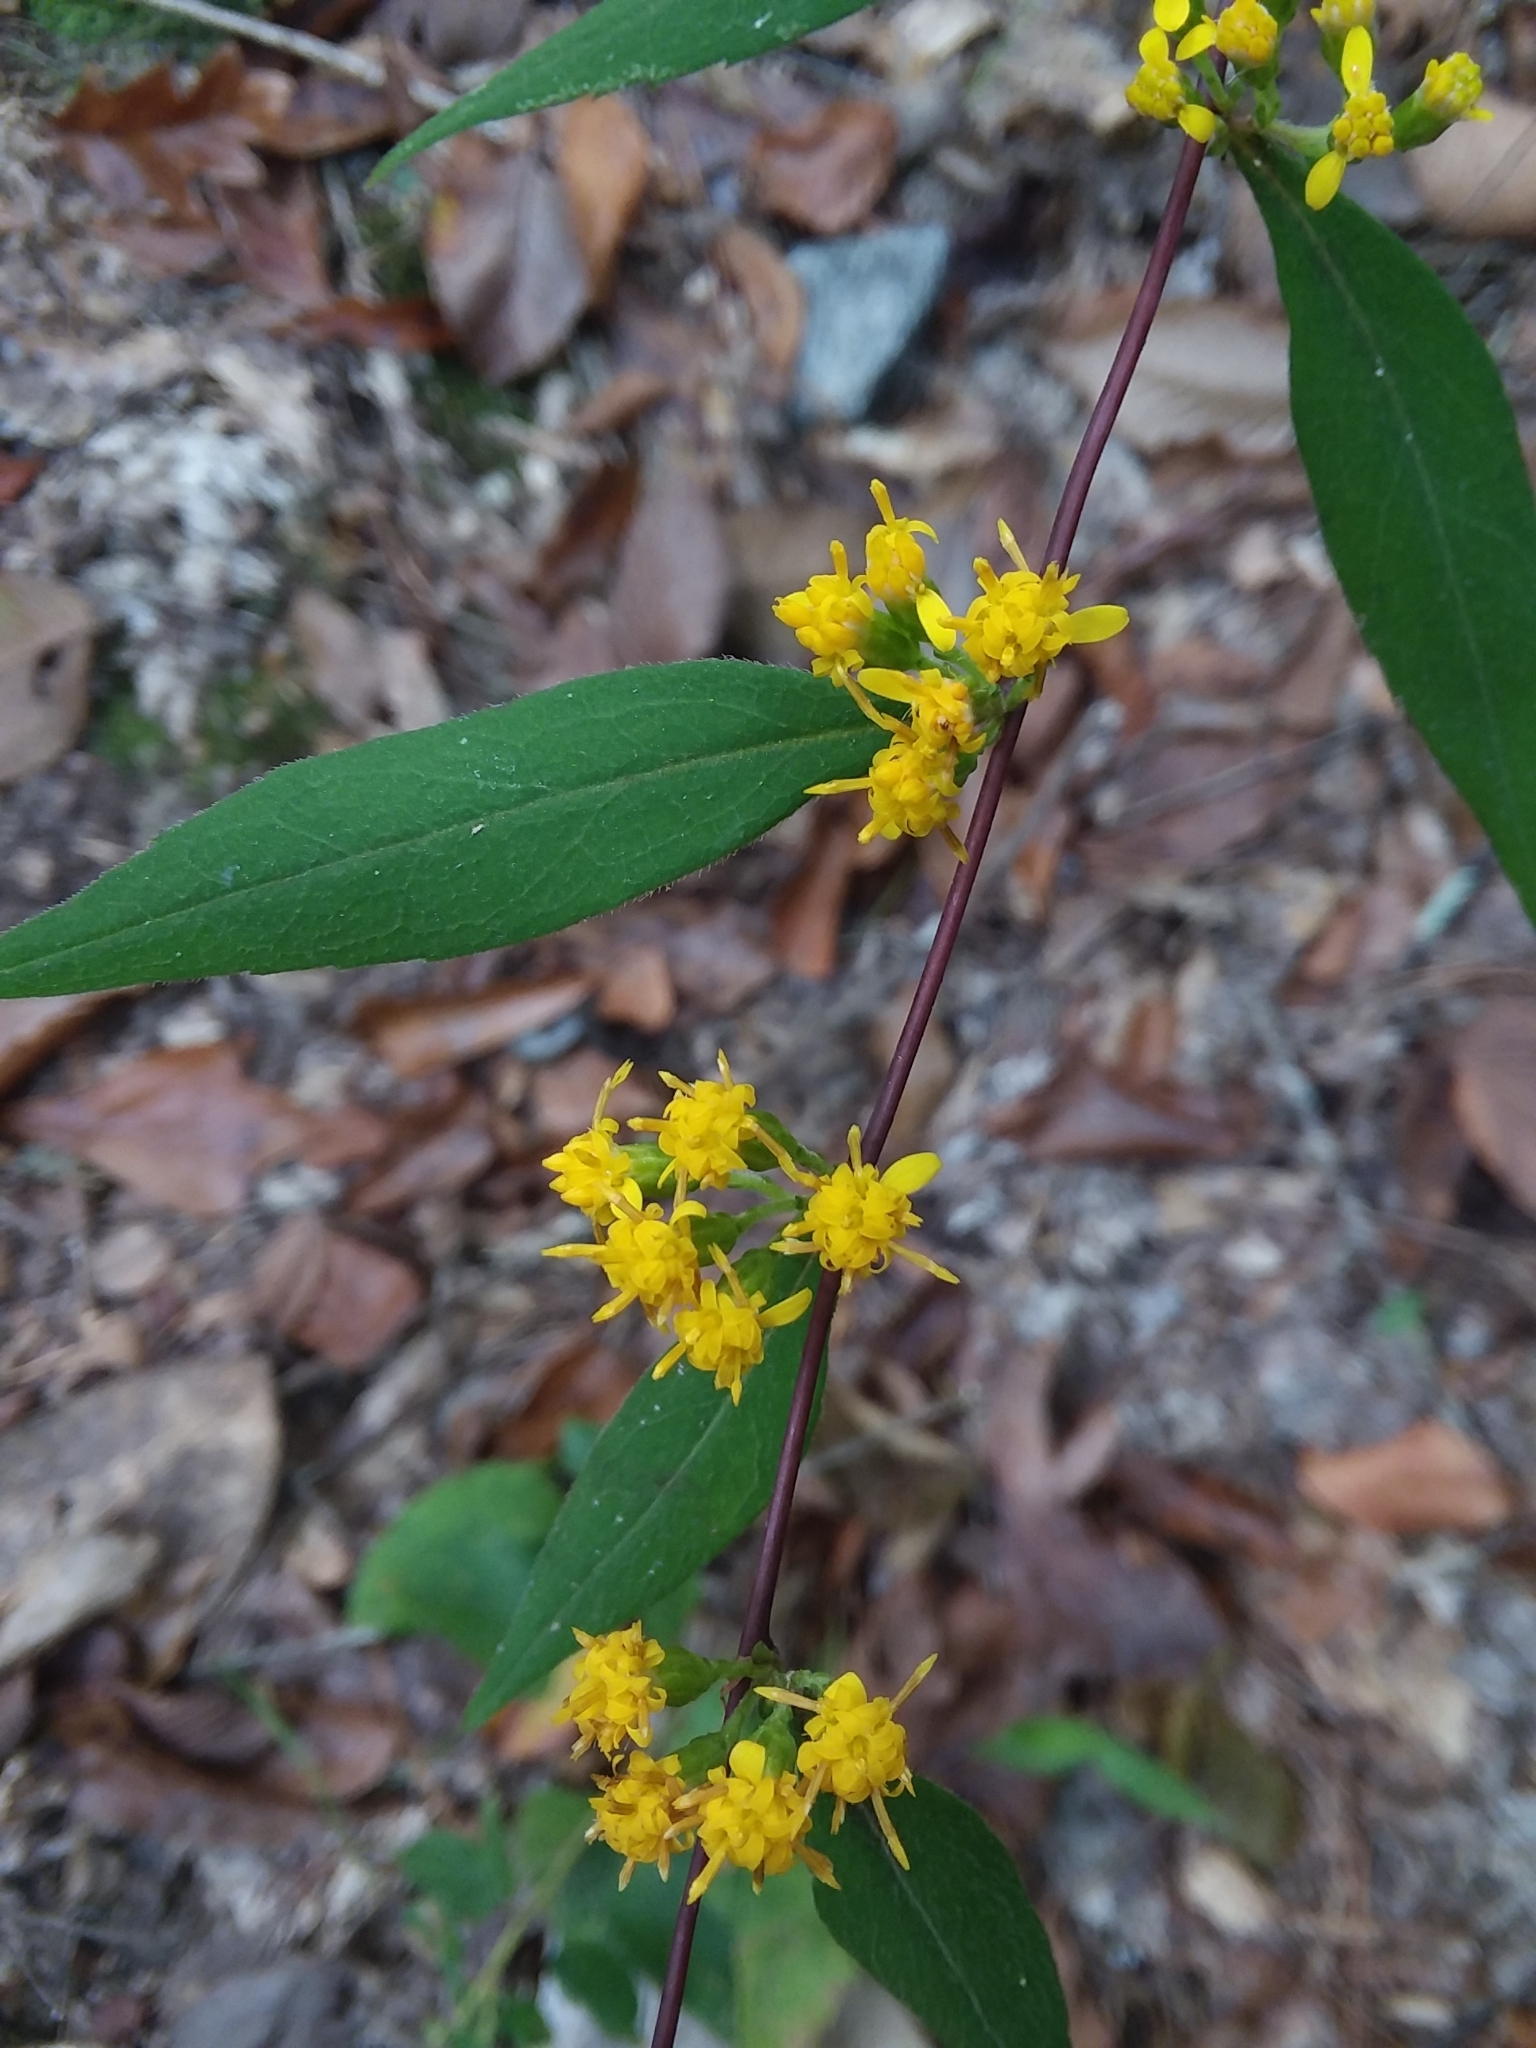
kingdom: Plantae
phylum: Tracheophyta
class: Magnoliopsida
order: Asterales
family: Asteraceae
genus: Solidago
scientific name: Solidago caesia
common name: Woodland goldenrod
